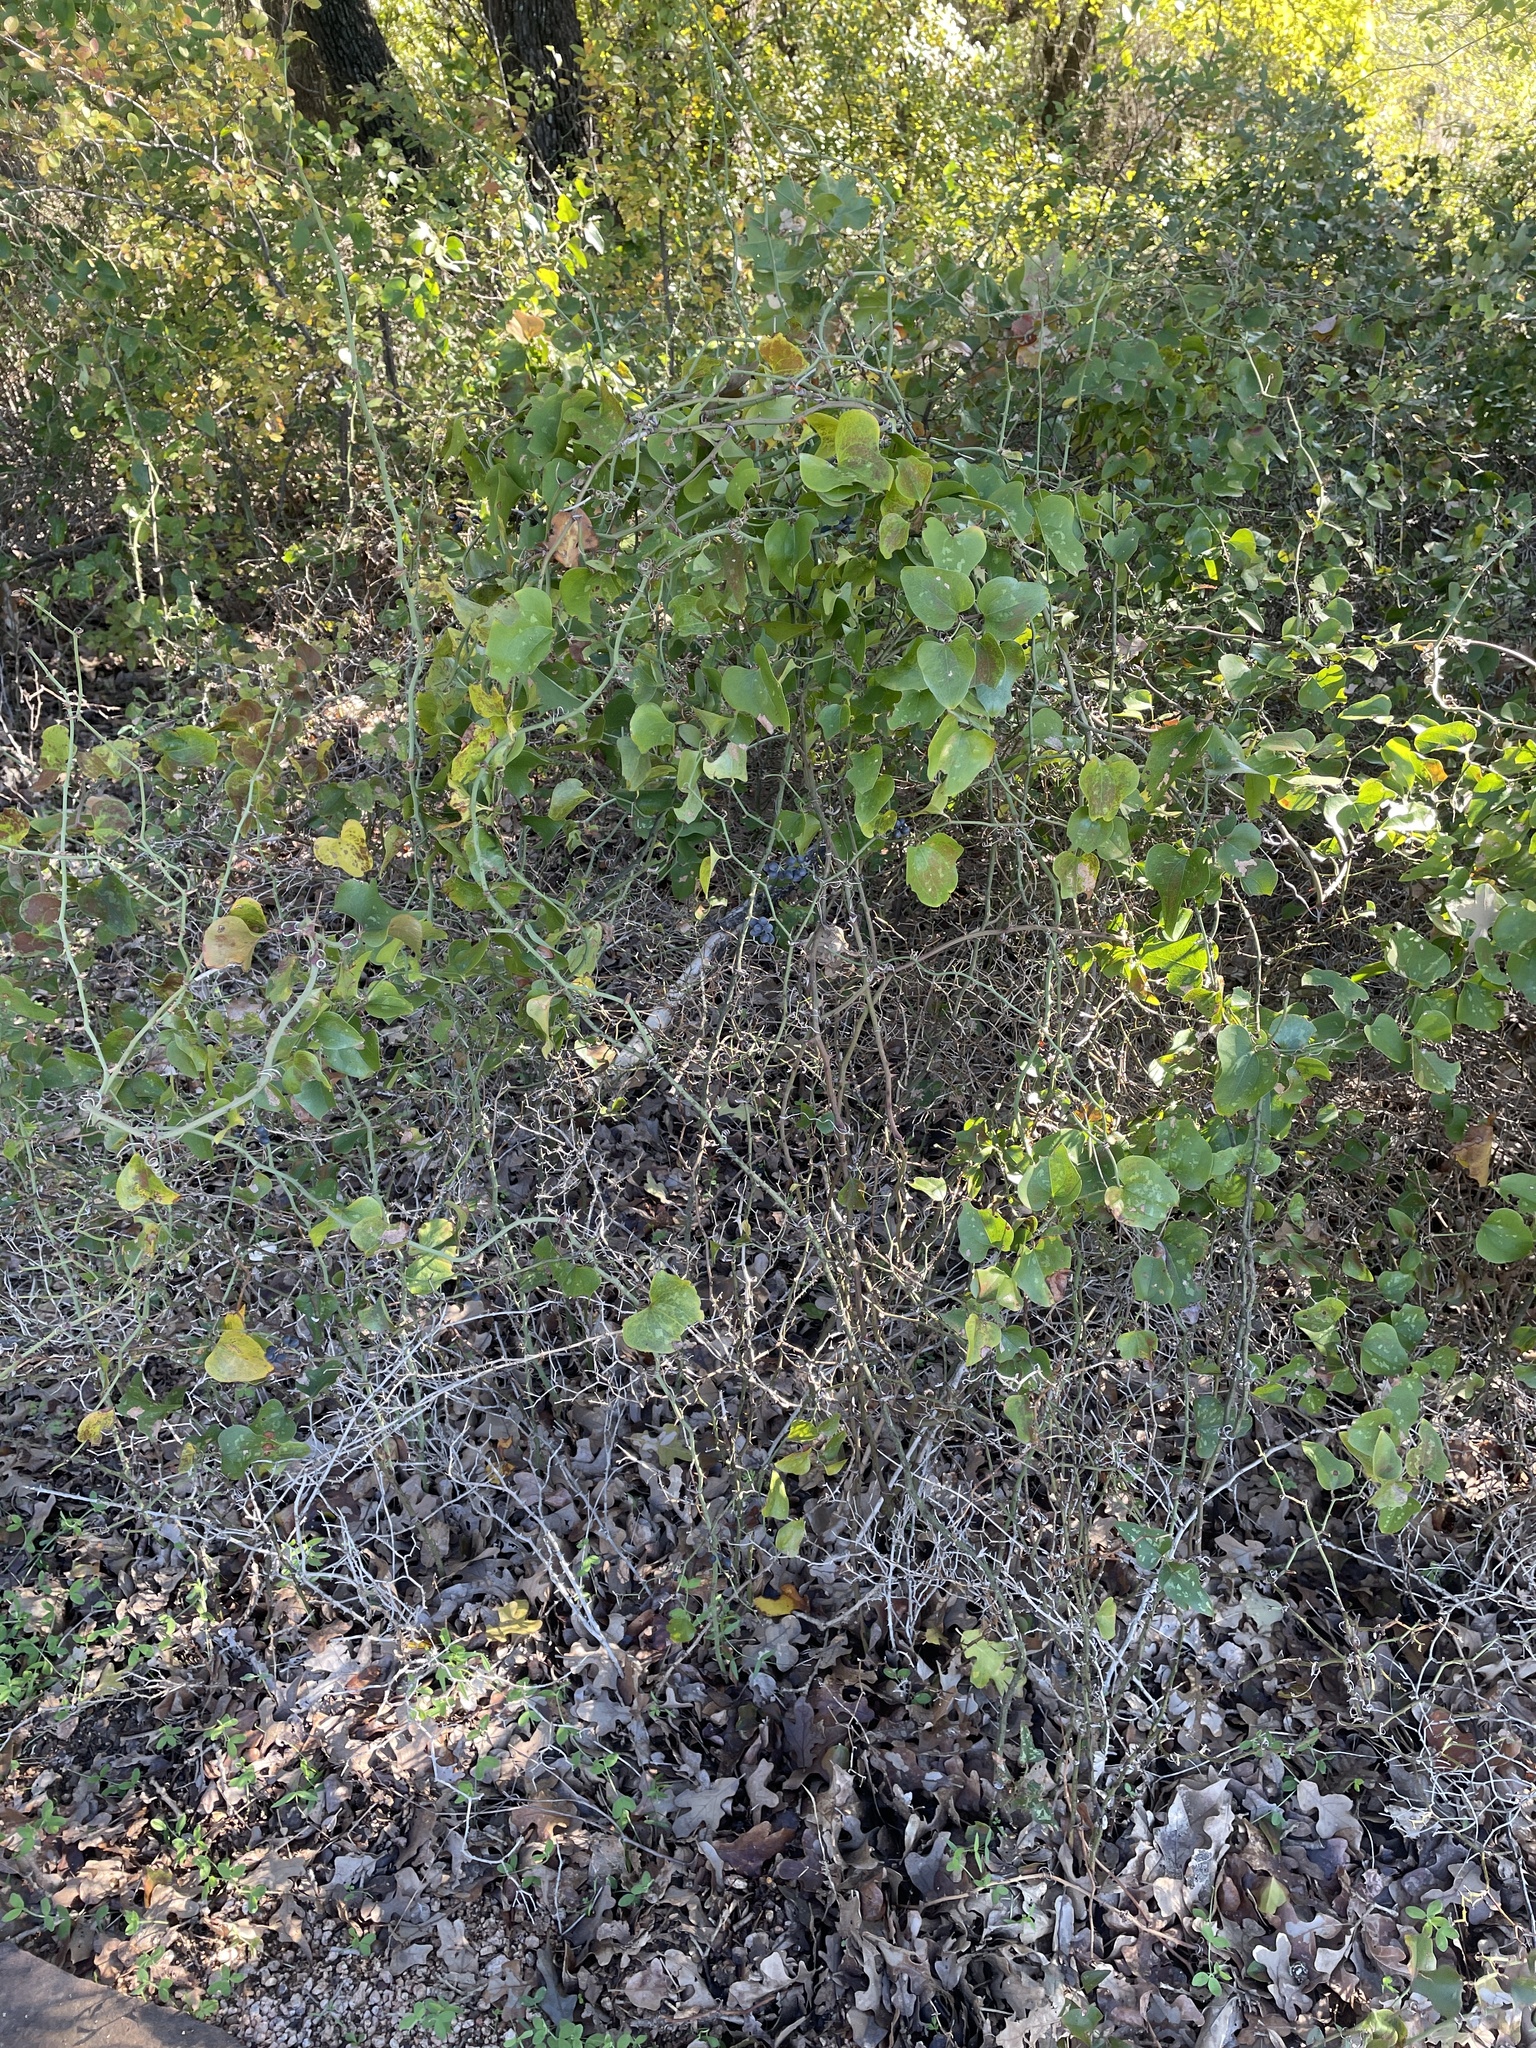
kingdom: Plantae
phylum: Tracheophyta
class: Liliopsida
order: Liliales
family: Smilacaceae
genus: Smilax
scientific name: Smilax bona-nox
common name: Catbrier
